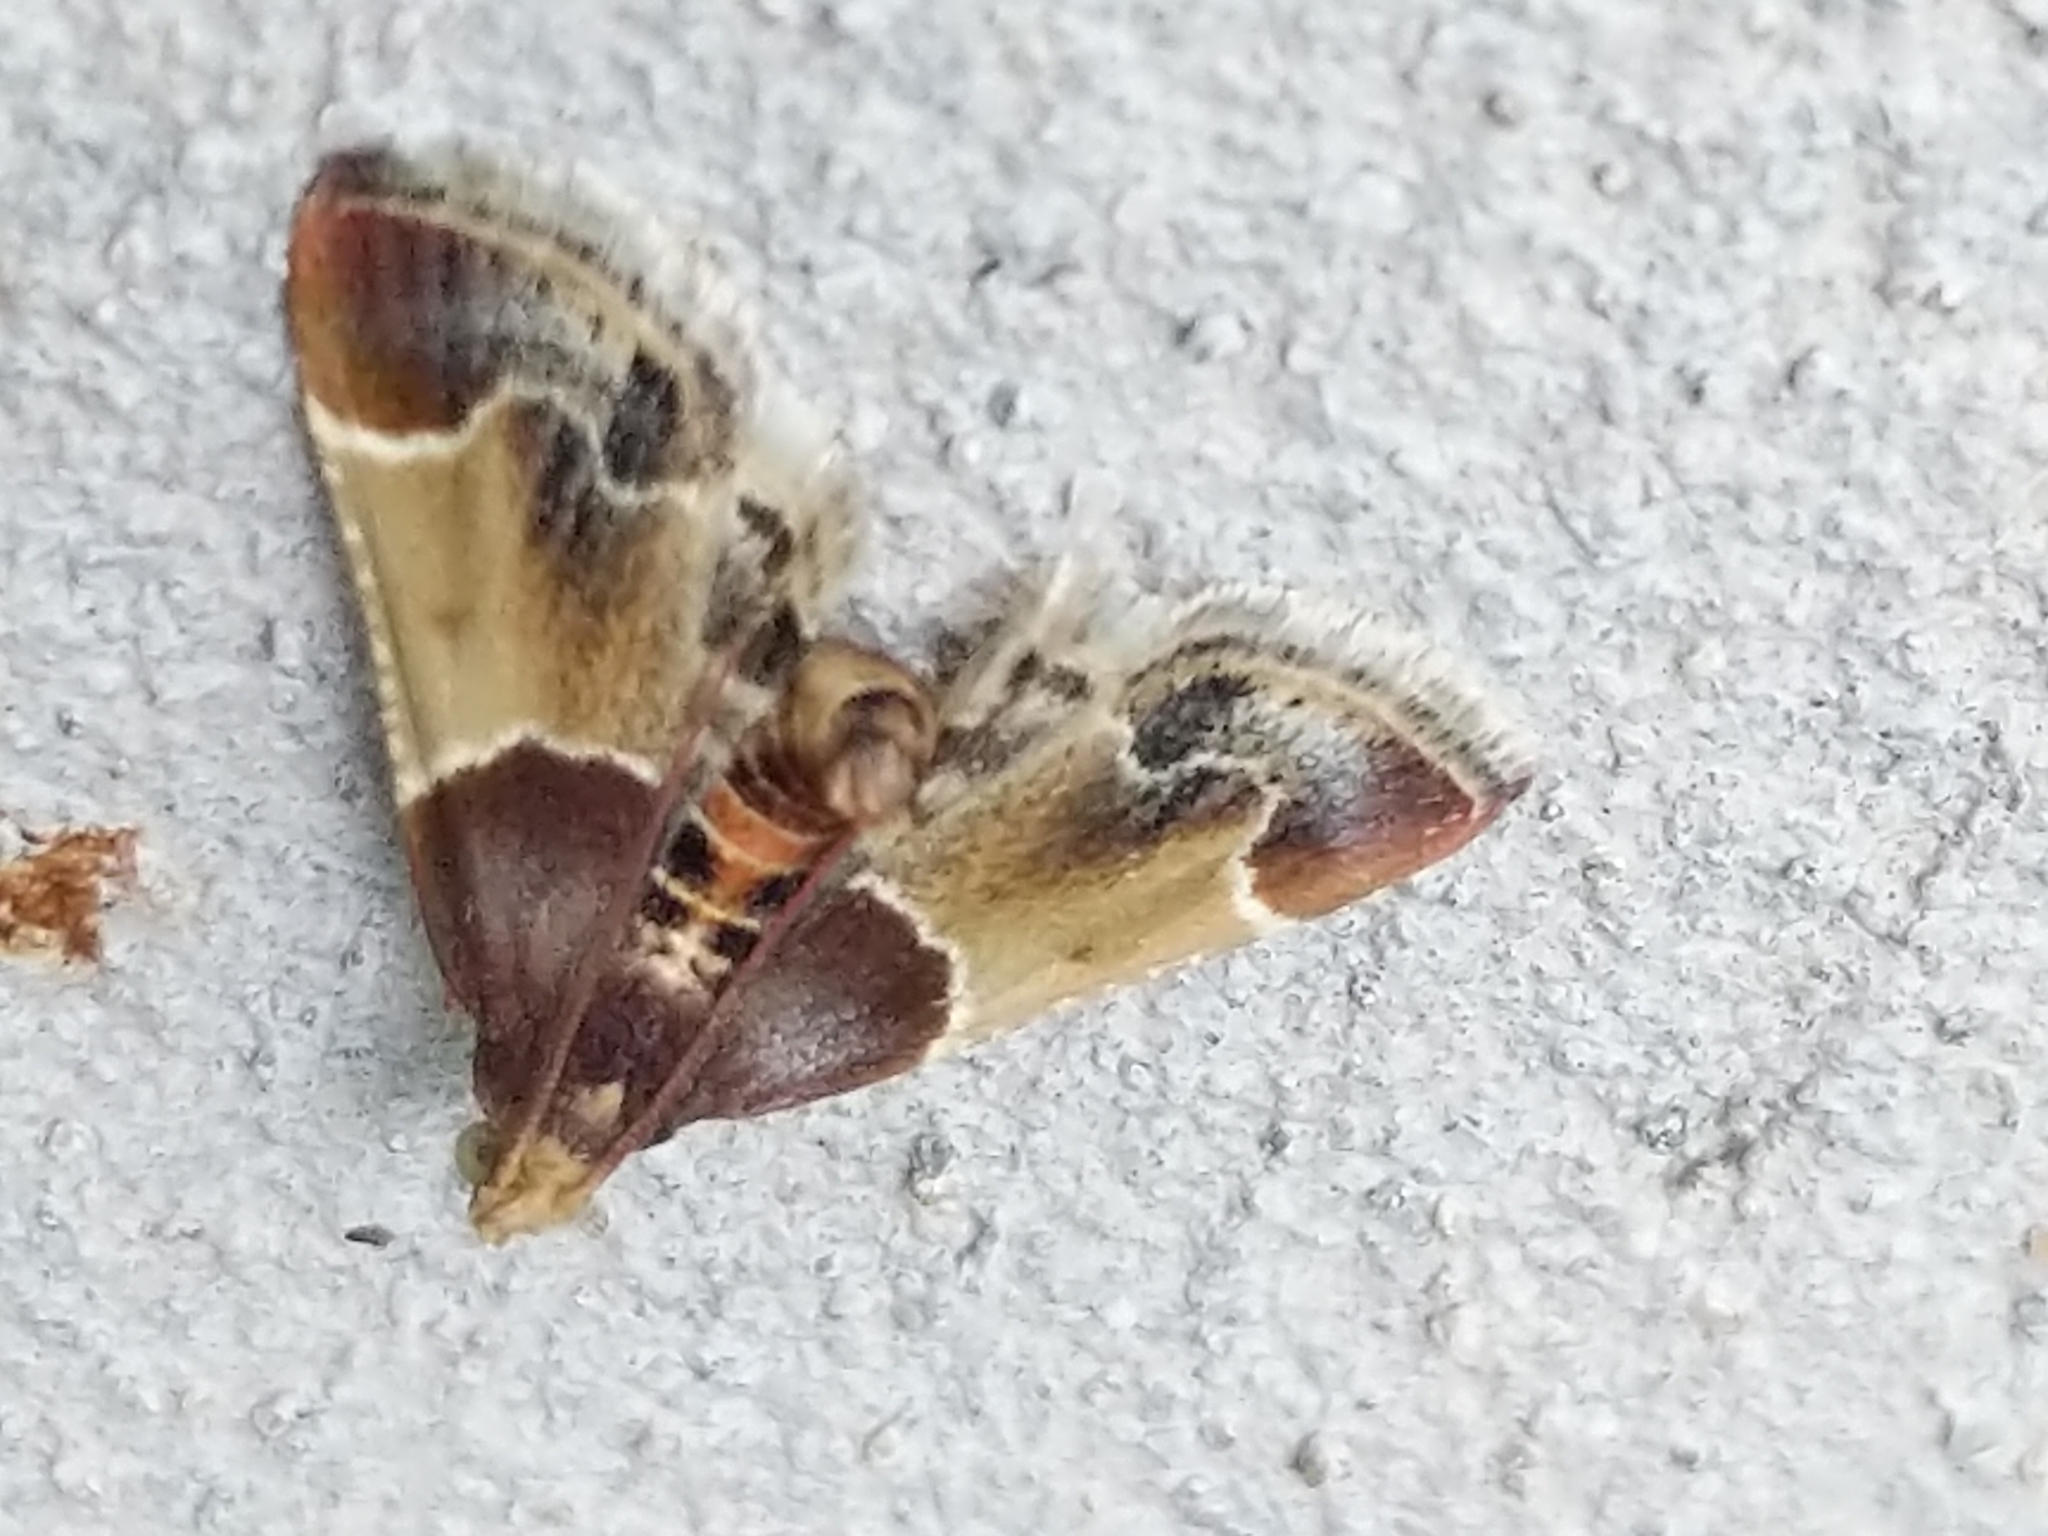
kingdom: Animalia
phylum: Arthropoda
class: Insecta
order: Lepidoptera
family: Pyralidae
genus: Pyralis
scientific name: Pyralis farinalis
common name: Meal moth
